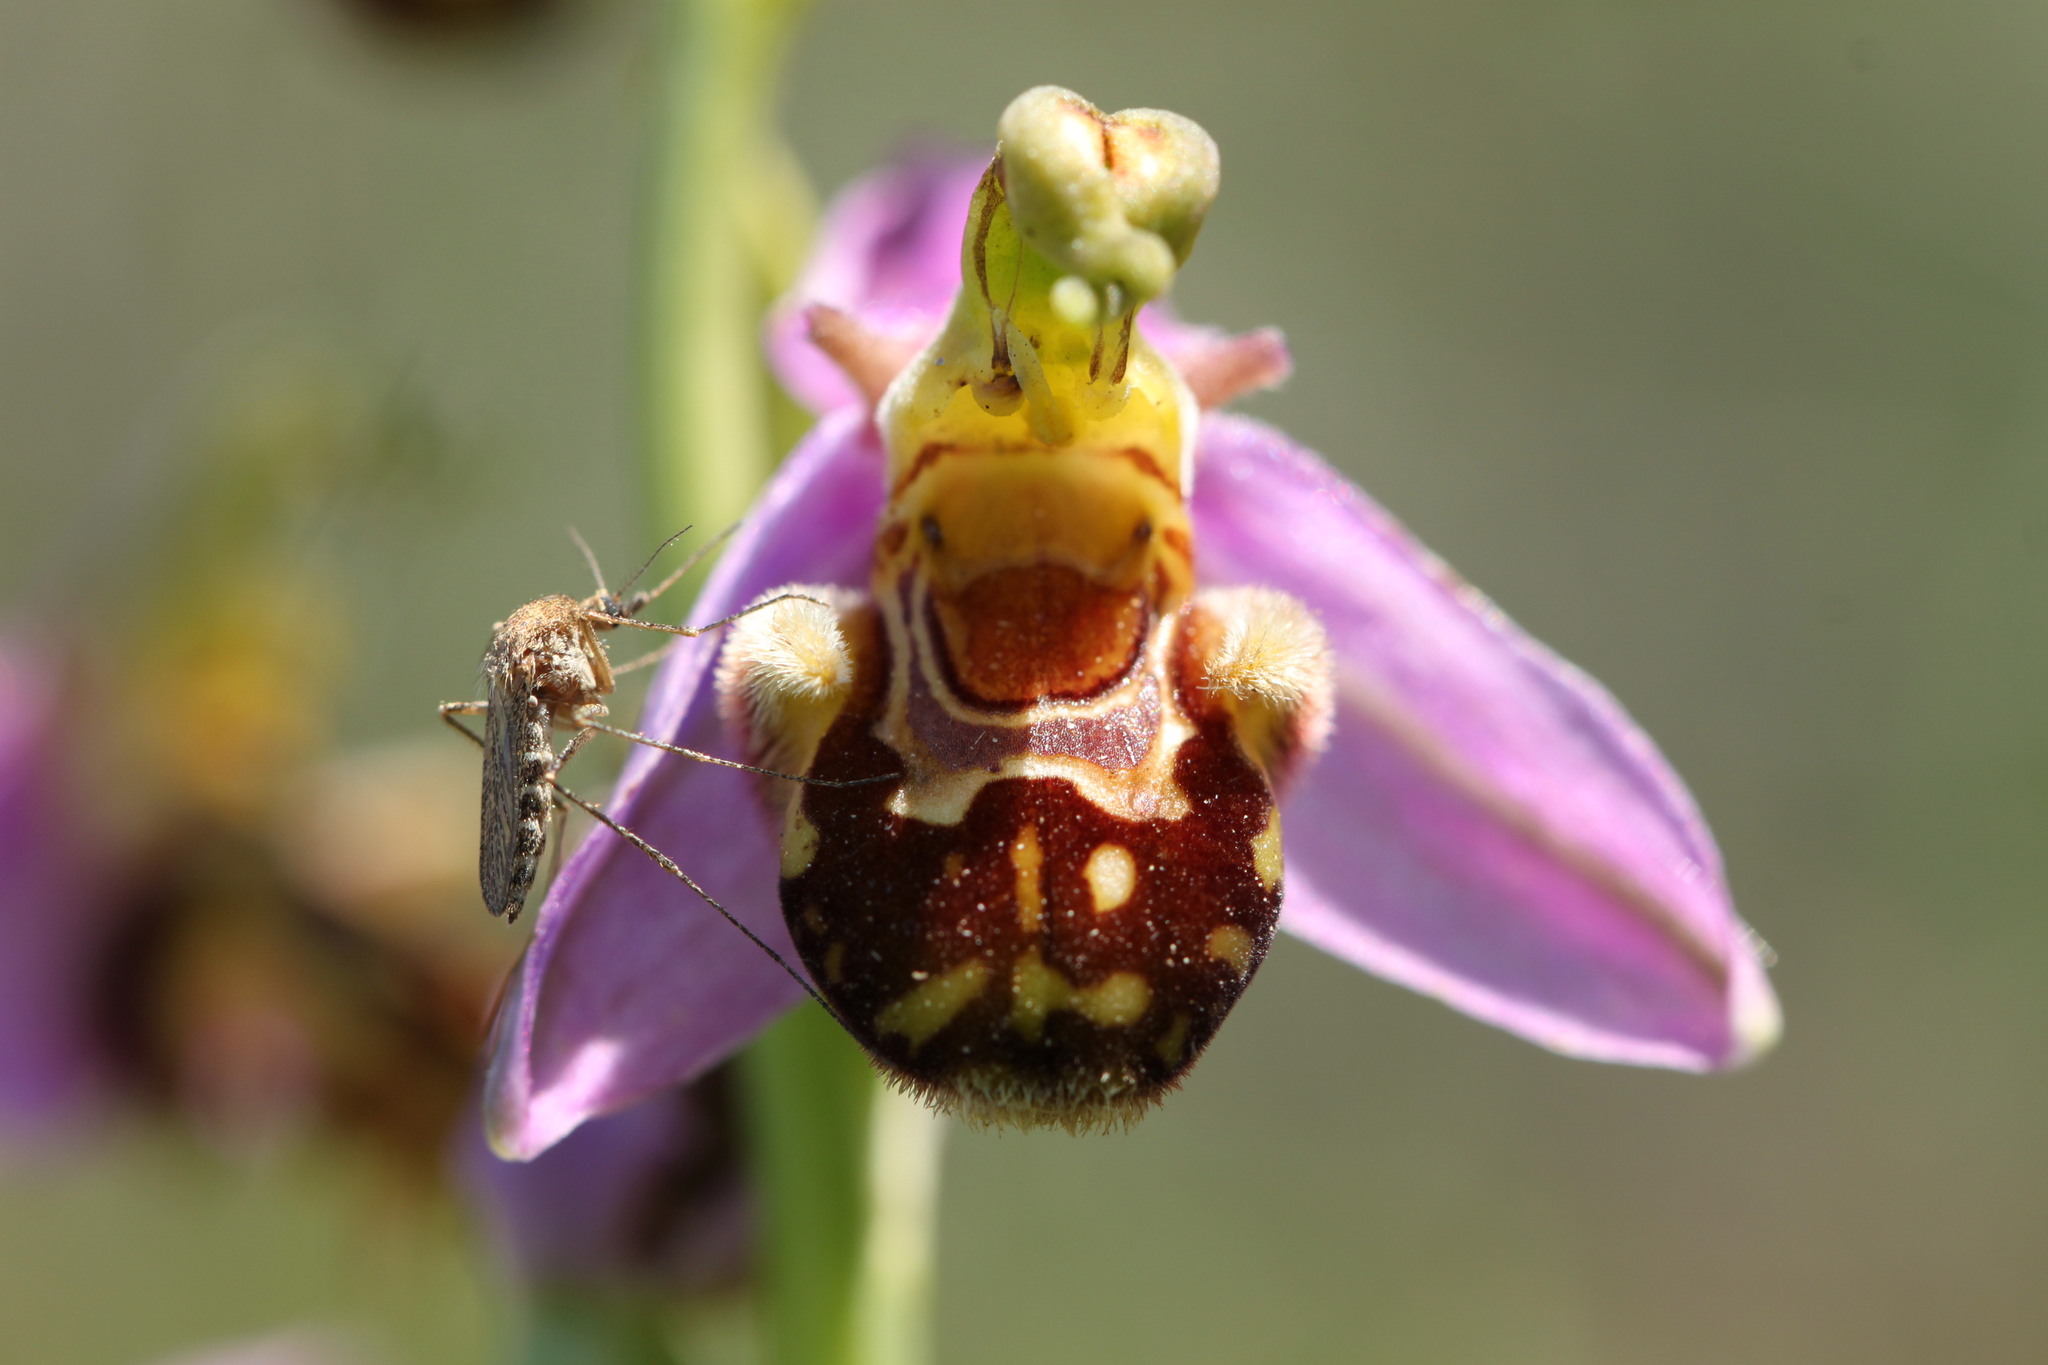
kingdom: Plantae
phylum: Tracheophyta
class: Liliopsida
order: Asparagales
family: Orchidaceae
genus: Ophrys
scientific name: Ophrys apifera
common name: Bee orchid
